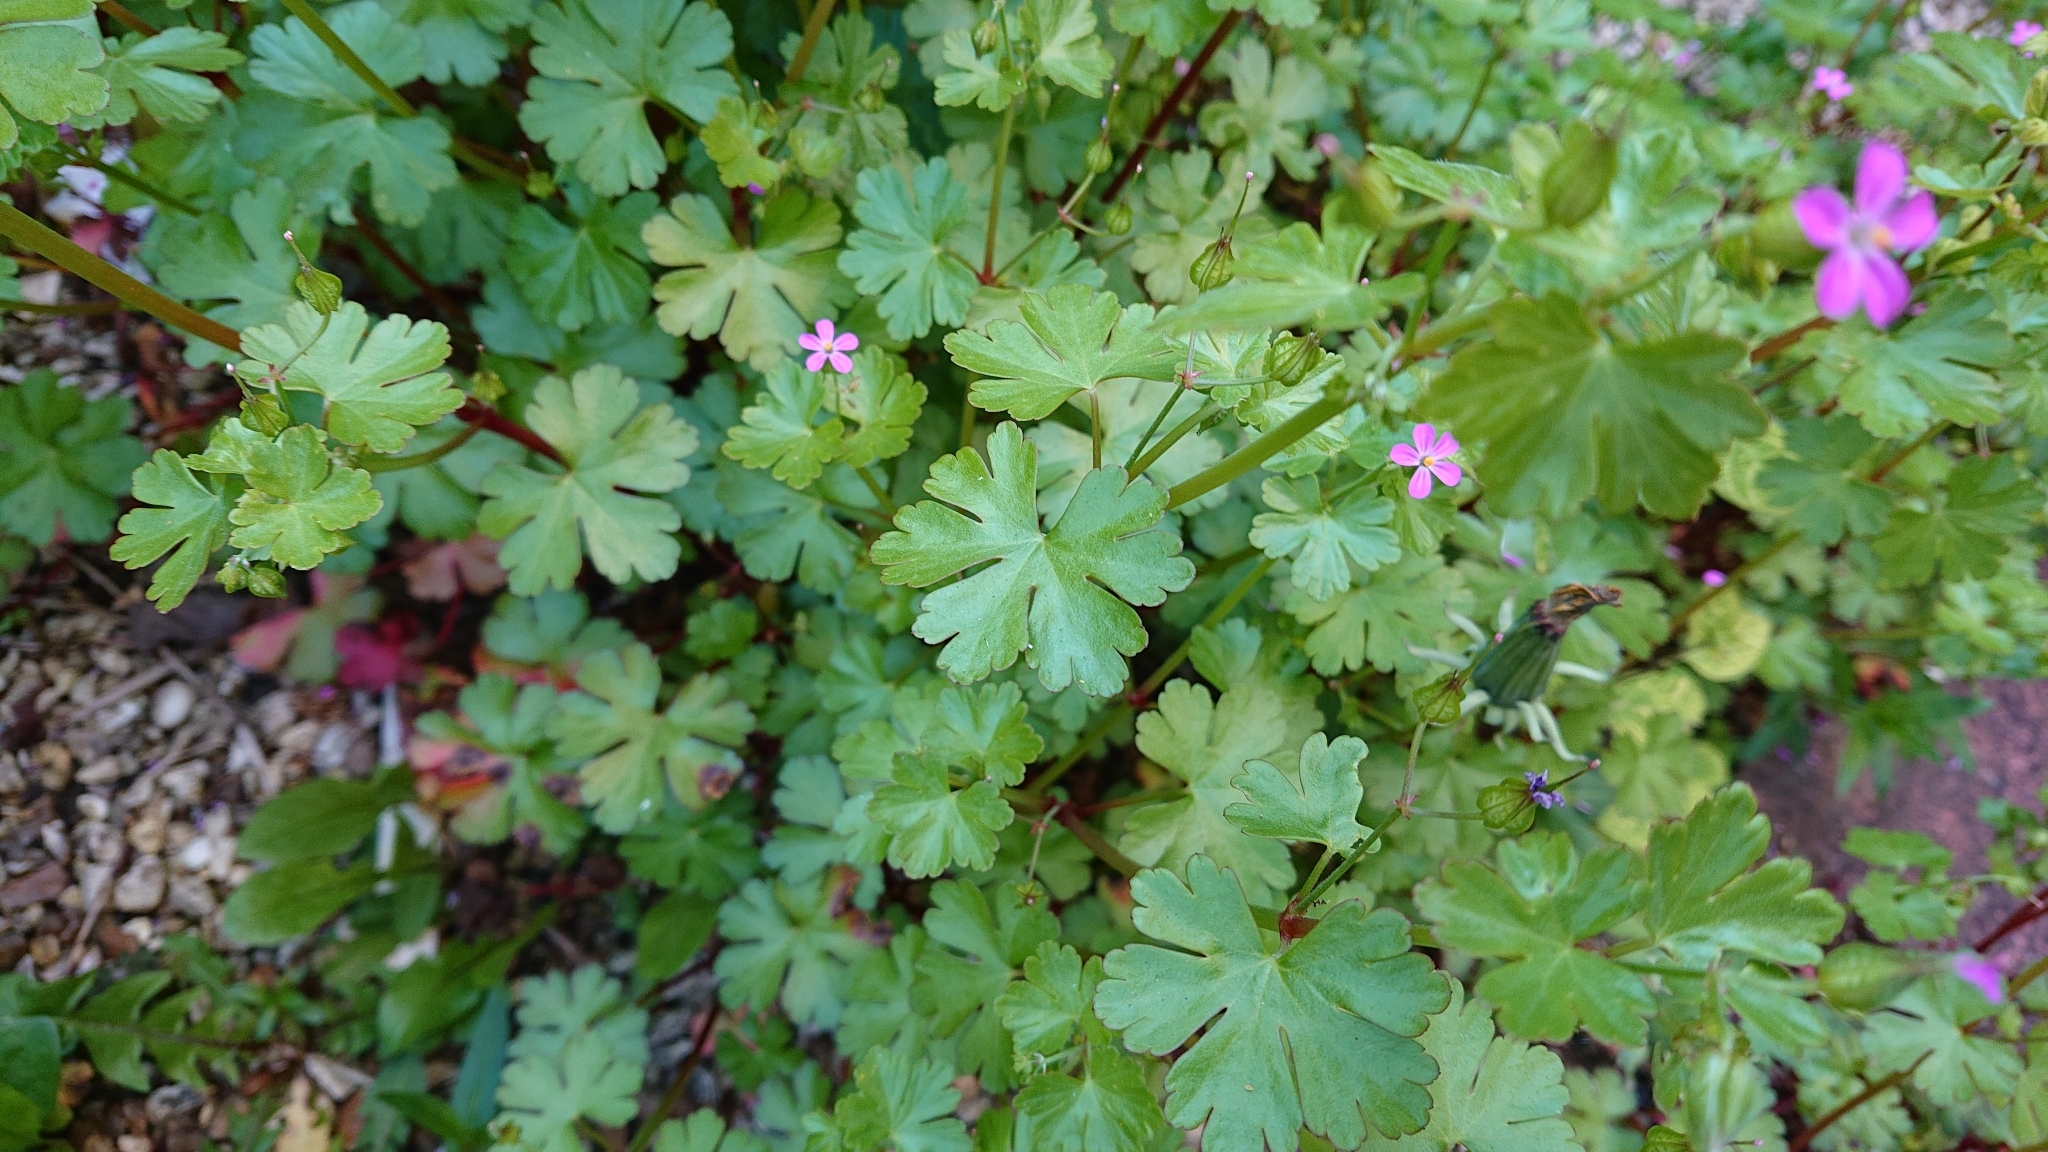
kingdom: Plantae
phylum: Tracheophyta
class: Magnoliopsida
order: Geraniales
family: Geraniaceae
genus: Geranium
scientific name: Geranium lucidum
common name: Shining crane's-bill
